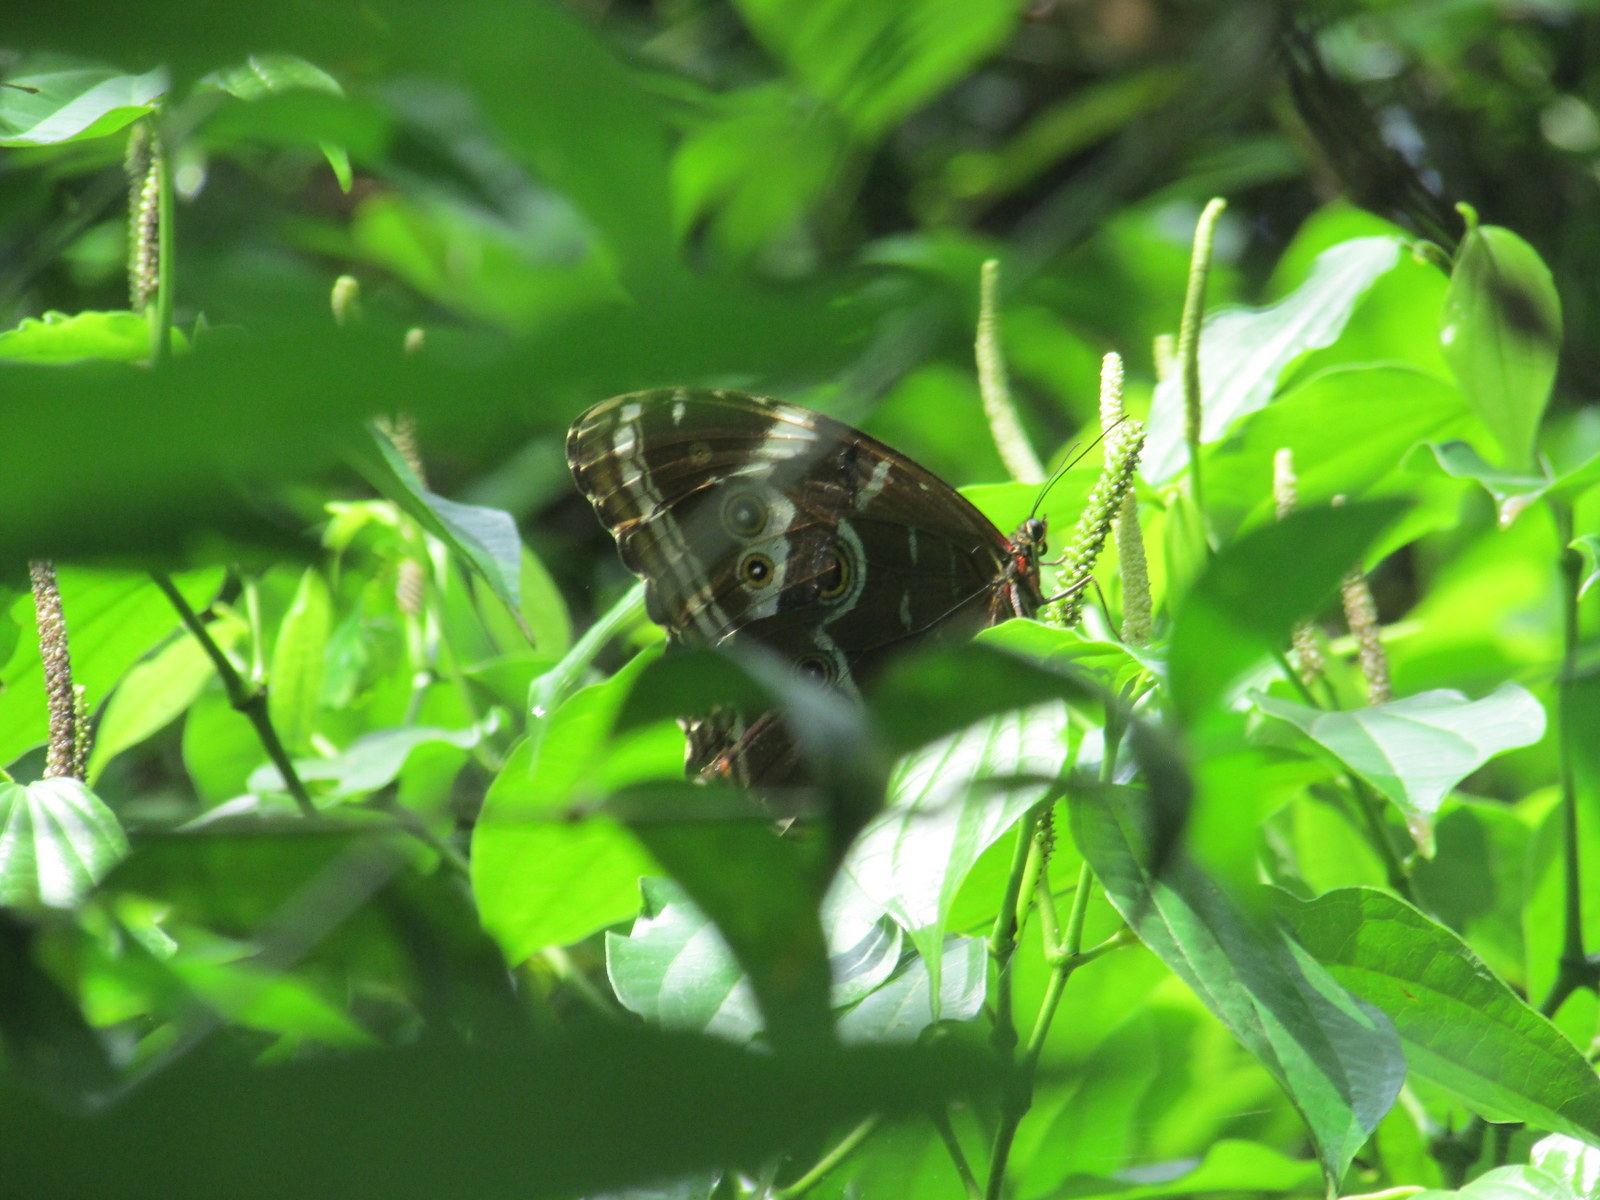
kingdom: Animalia
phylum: Arthropoda
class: Insecta
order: Lepidoptera
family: Nymphalidae
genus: Morpho
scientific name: Morpho helenor
